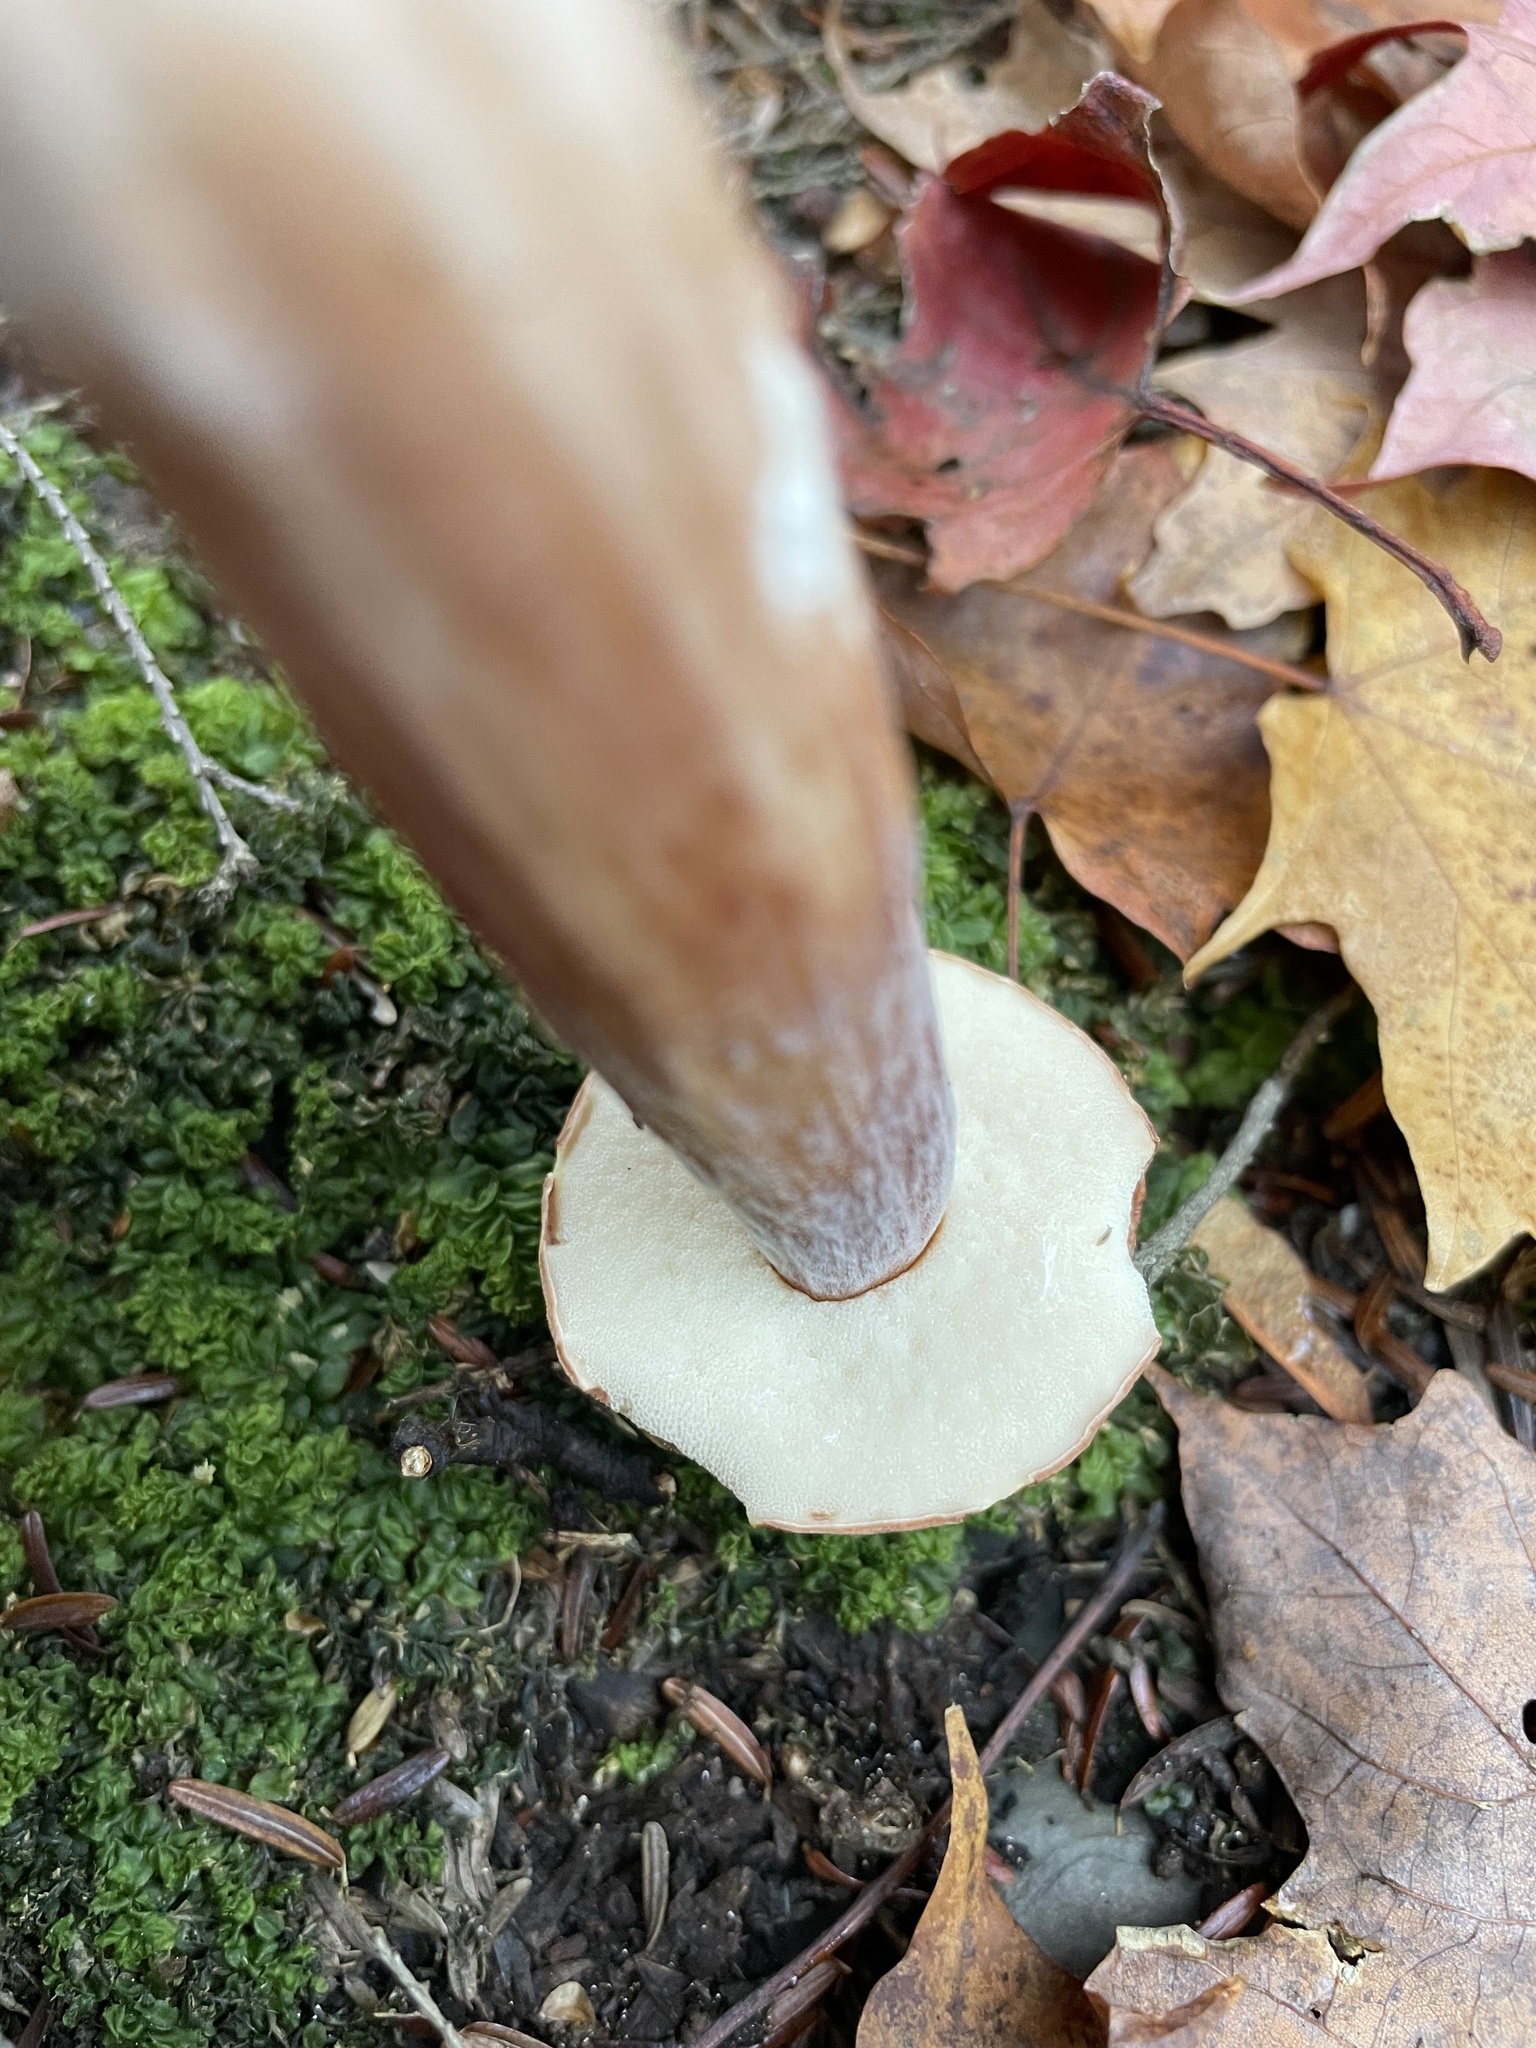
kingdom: Fungi
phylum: Basidiomycota
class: Agaricomycetes
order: Boletales
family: Boletaceae
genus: Austroboletus
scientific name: Austroboletus gracilis
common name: Graceful bolete
